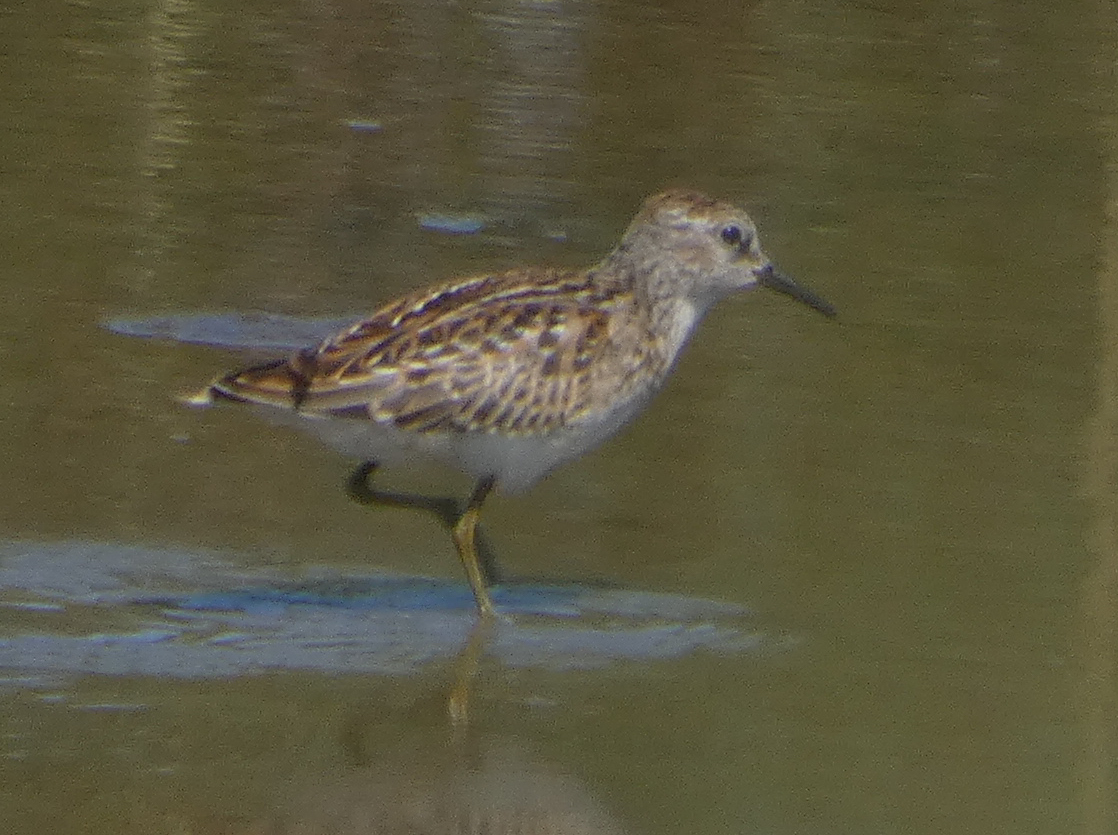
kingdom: Animalia
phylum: Chordata
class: Aves
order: Charadriiformes
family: Scolopacidae
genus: Calidris
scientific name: Calidris minutilla
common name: Least sandpiper
